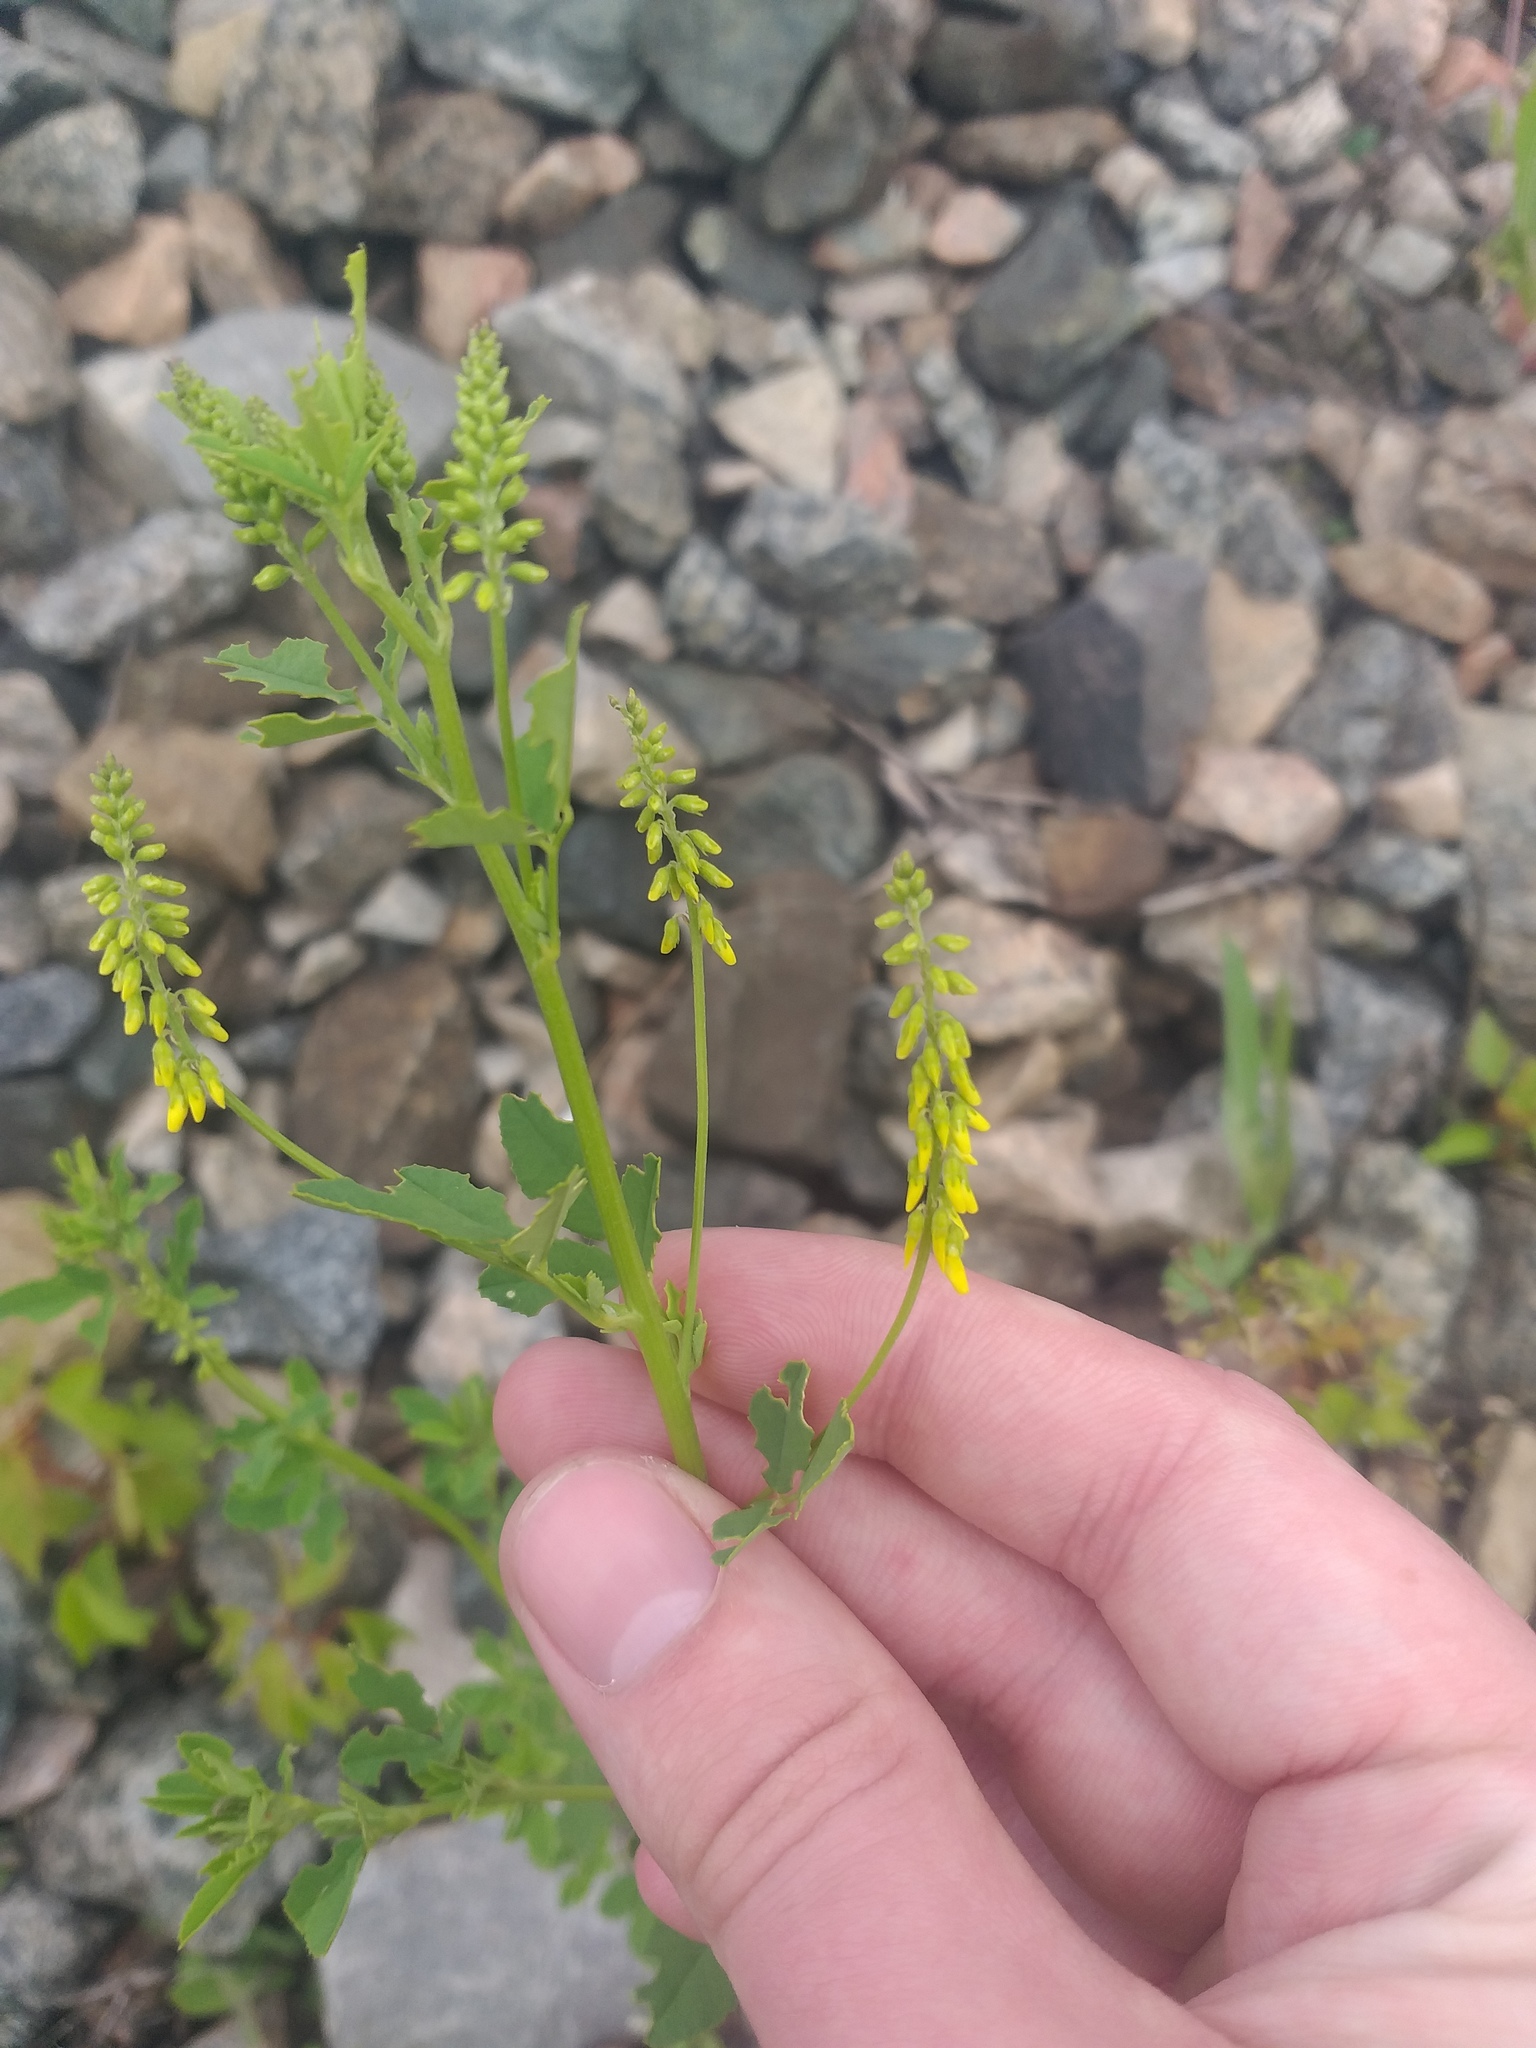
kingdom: Plantae
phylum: Tracheophyta
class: Magnoliopsida
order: Fabales
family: Fabaceae
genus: Melilotus
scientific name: Melilotus officinalis
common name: Sweetclover
